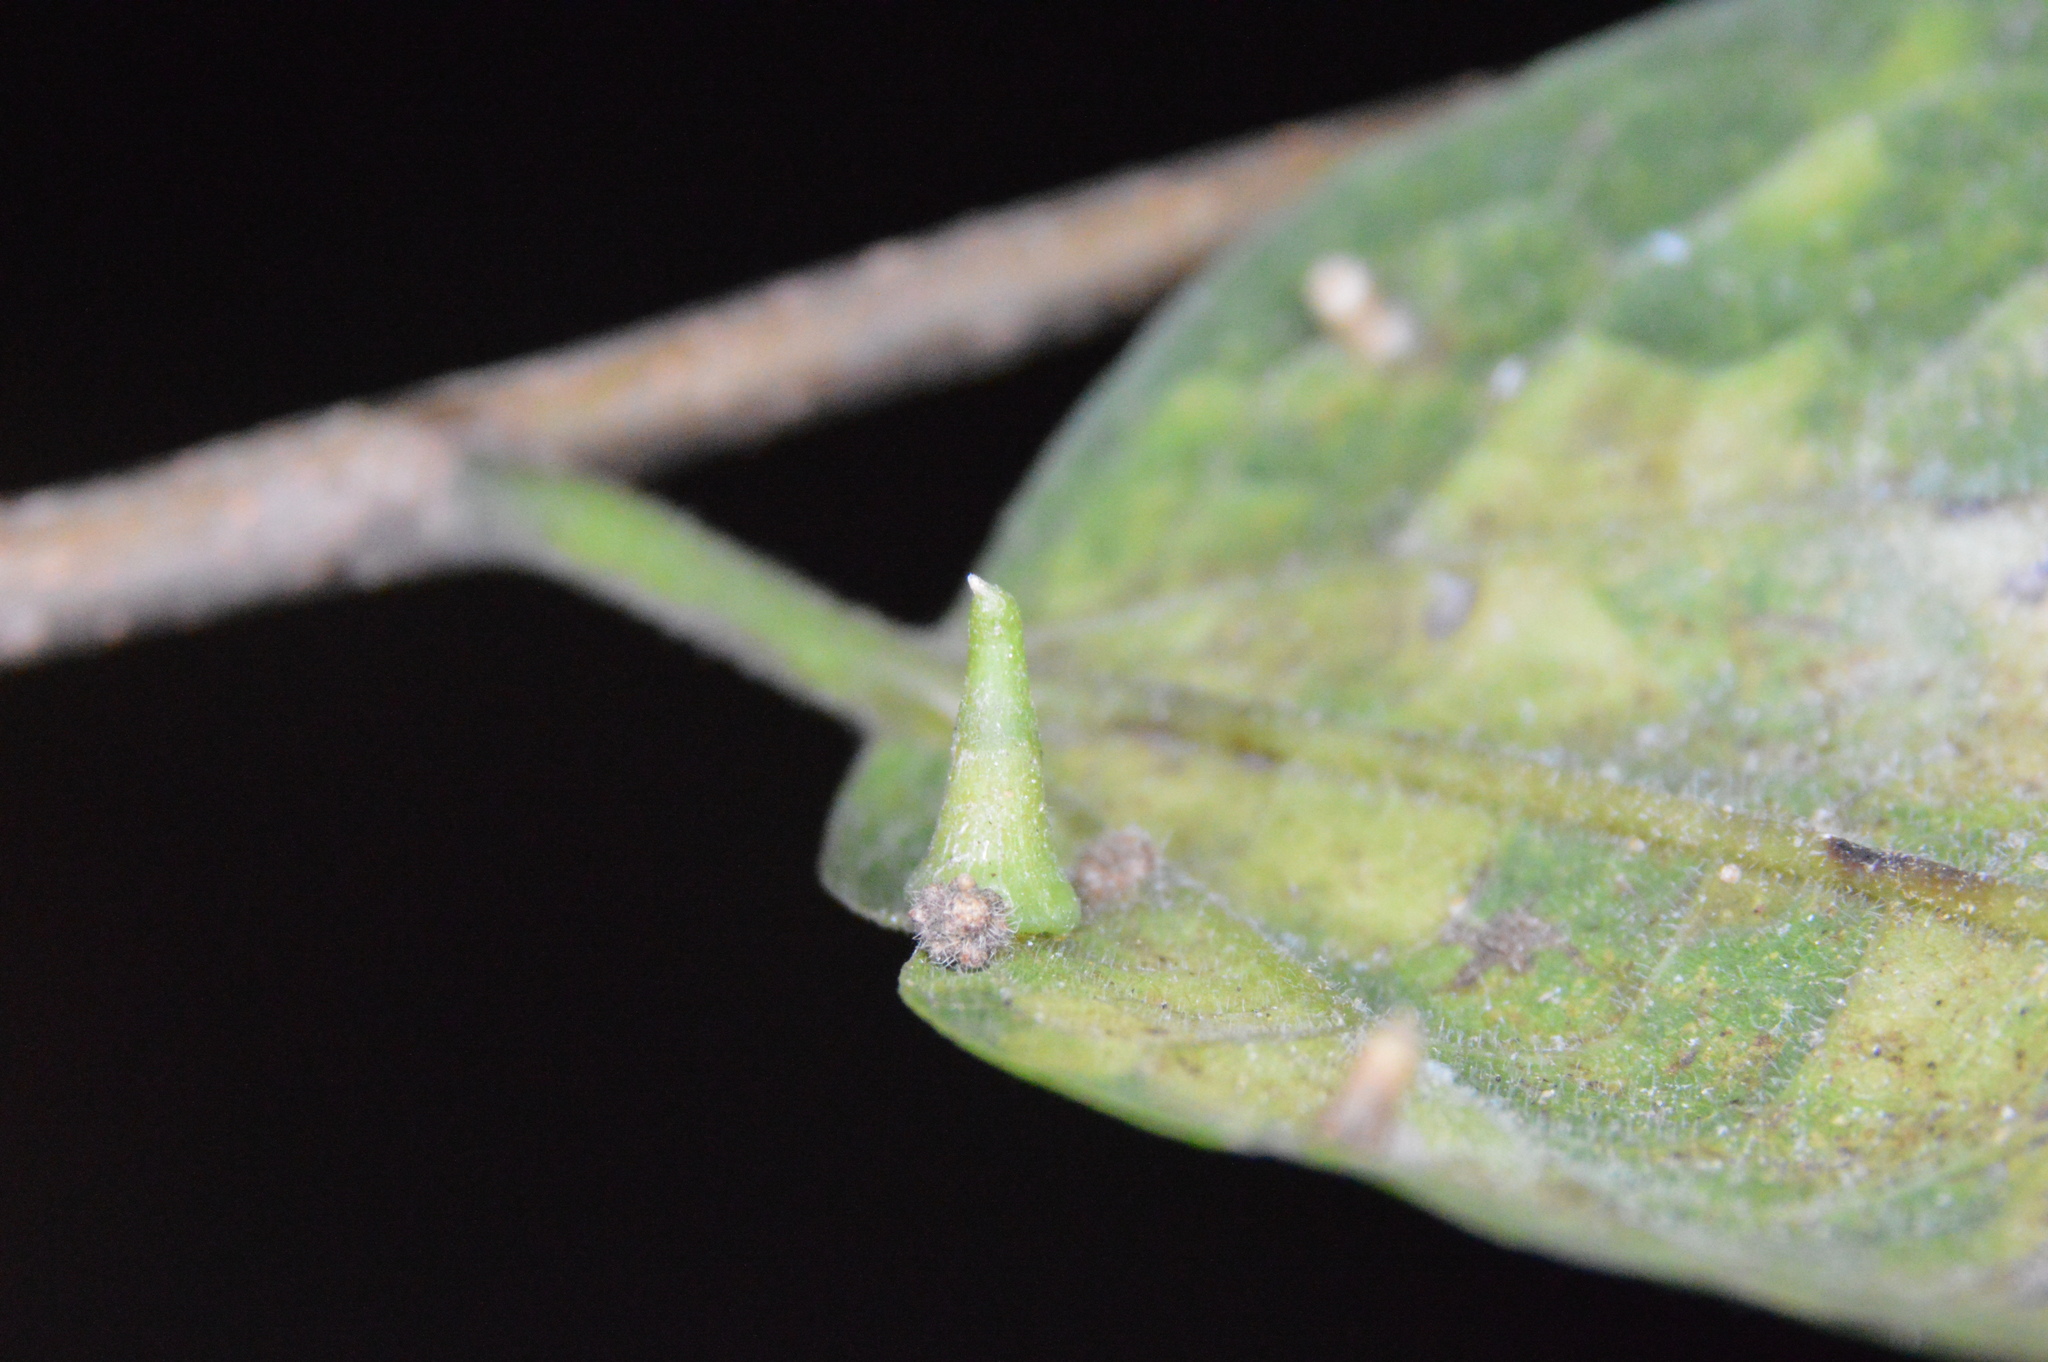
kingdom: Animalia
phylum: Arthropoda
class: Insecta
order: Diptera
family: Cecidomyiidae
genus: Celticecis
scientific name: Celticecis capsularis
